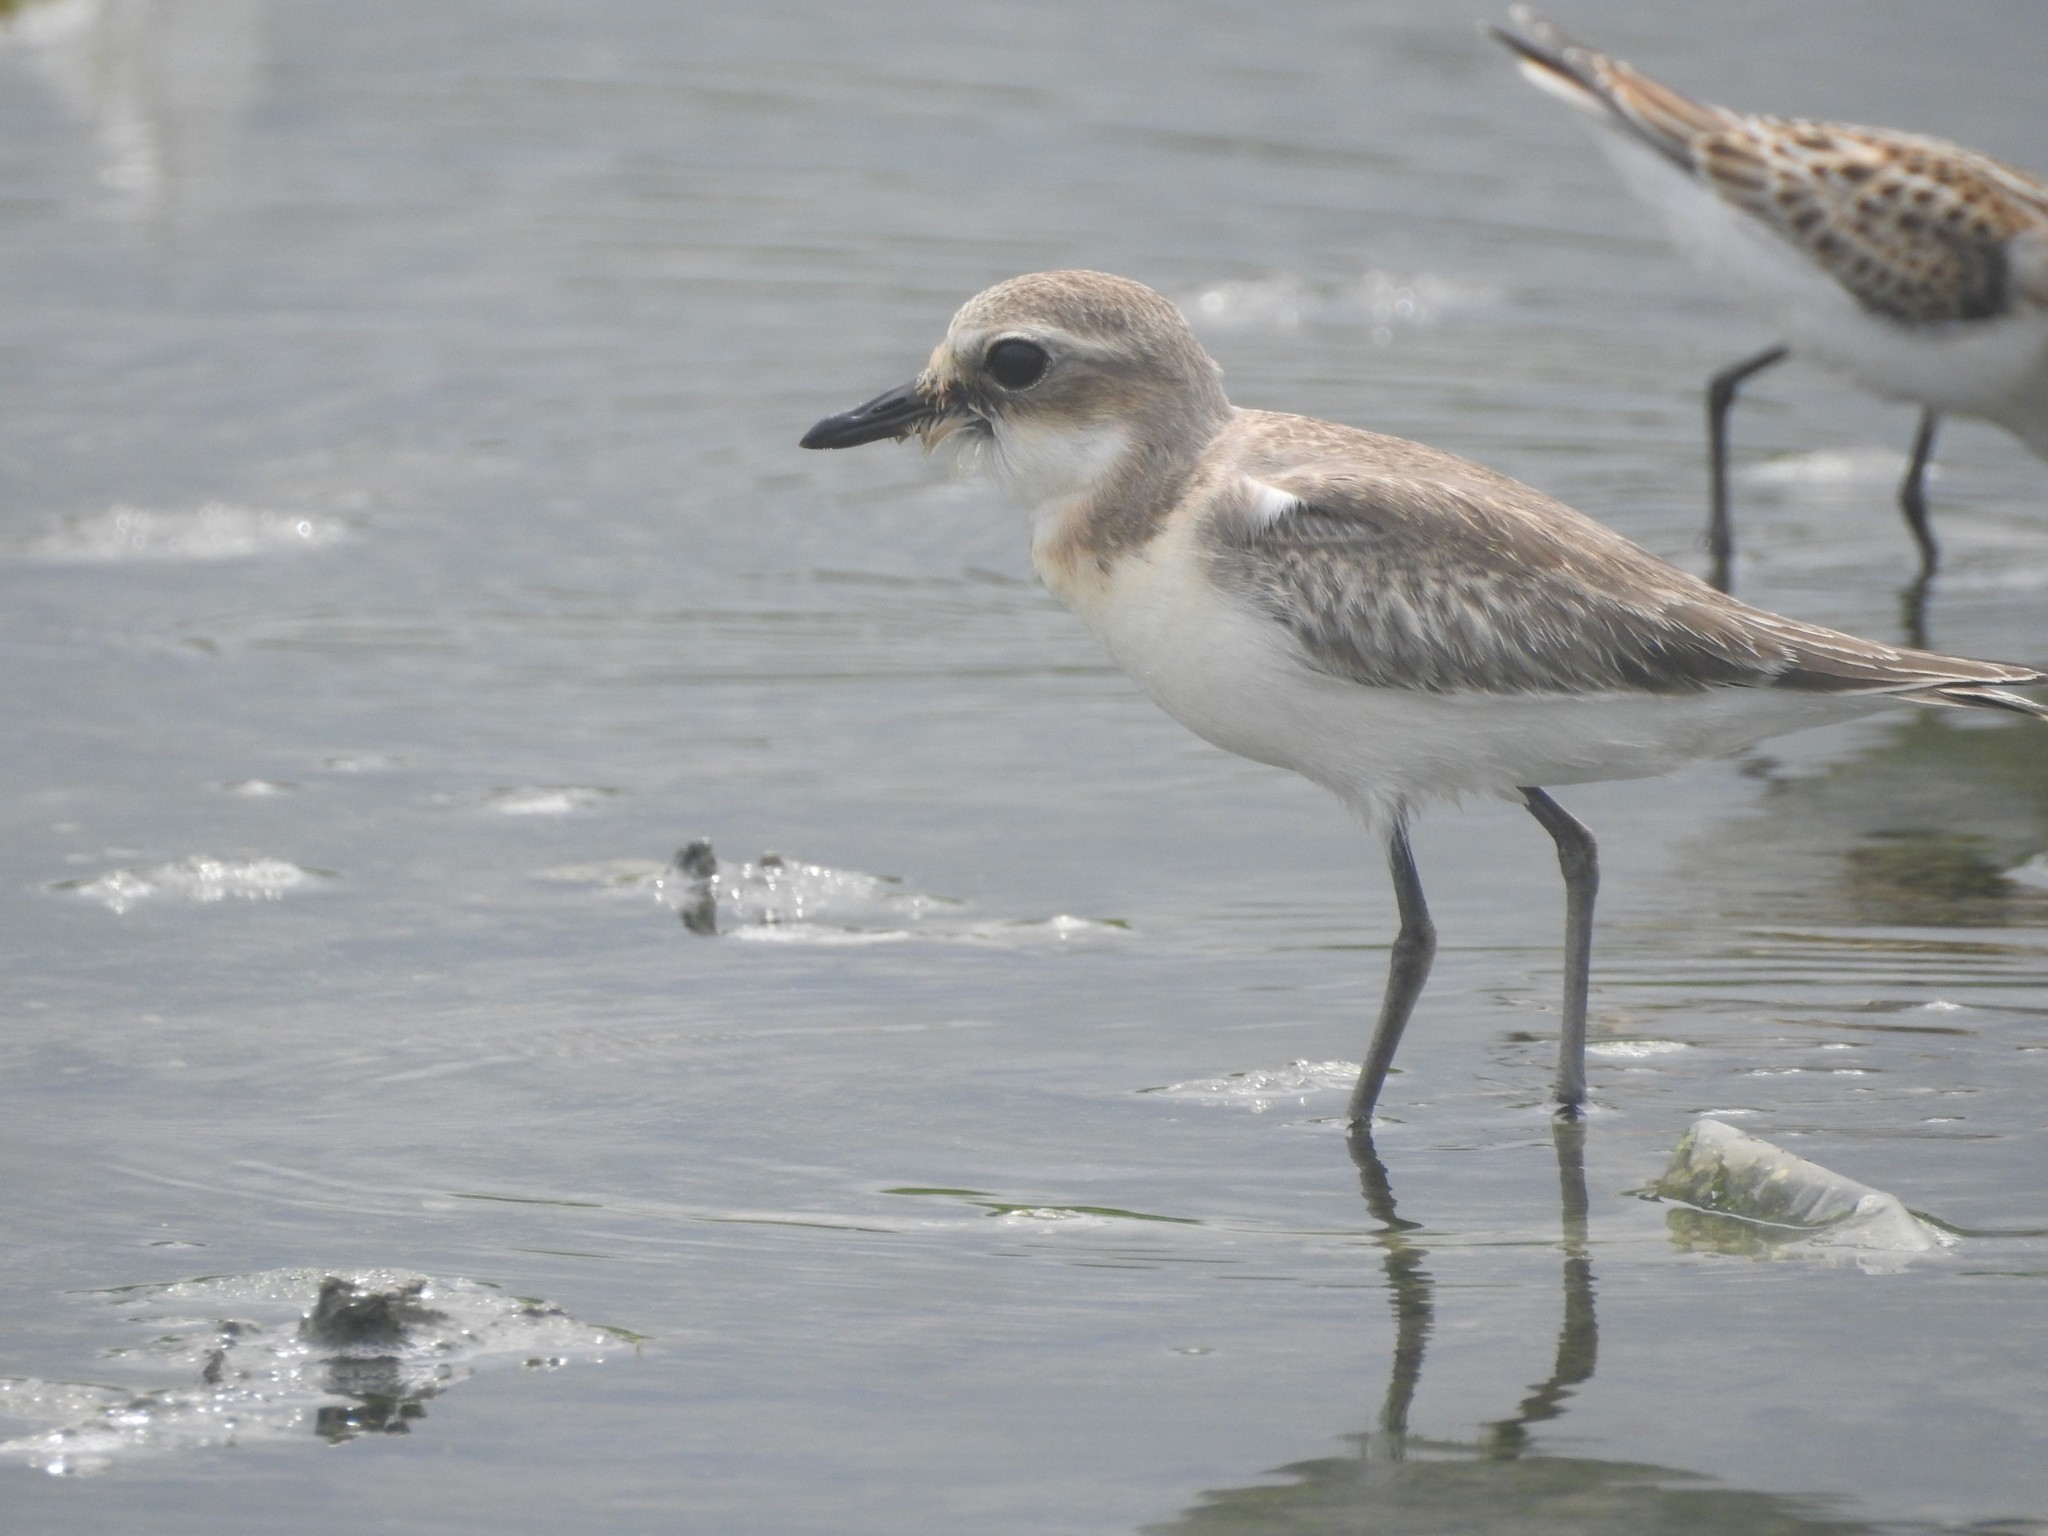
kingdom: Animalia
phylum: Chordata
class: Aves
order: Charadriiformes
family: Charadriidae
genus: Anarhynchus
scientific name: Anarhynchus
